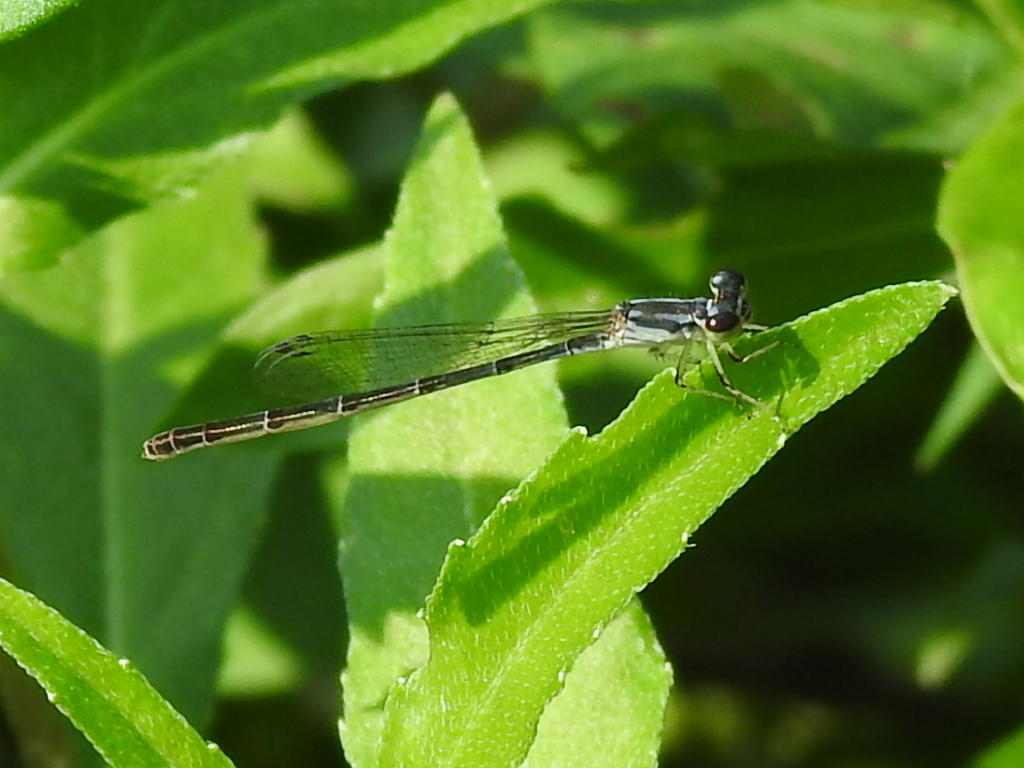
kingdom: Animalia
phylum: Arthropoda
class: Insecta
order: Odonata
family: Coenagrionidae
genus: Ischnura
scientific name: Ischnura posita
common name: Fragile forktail
